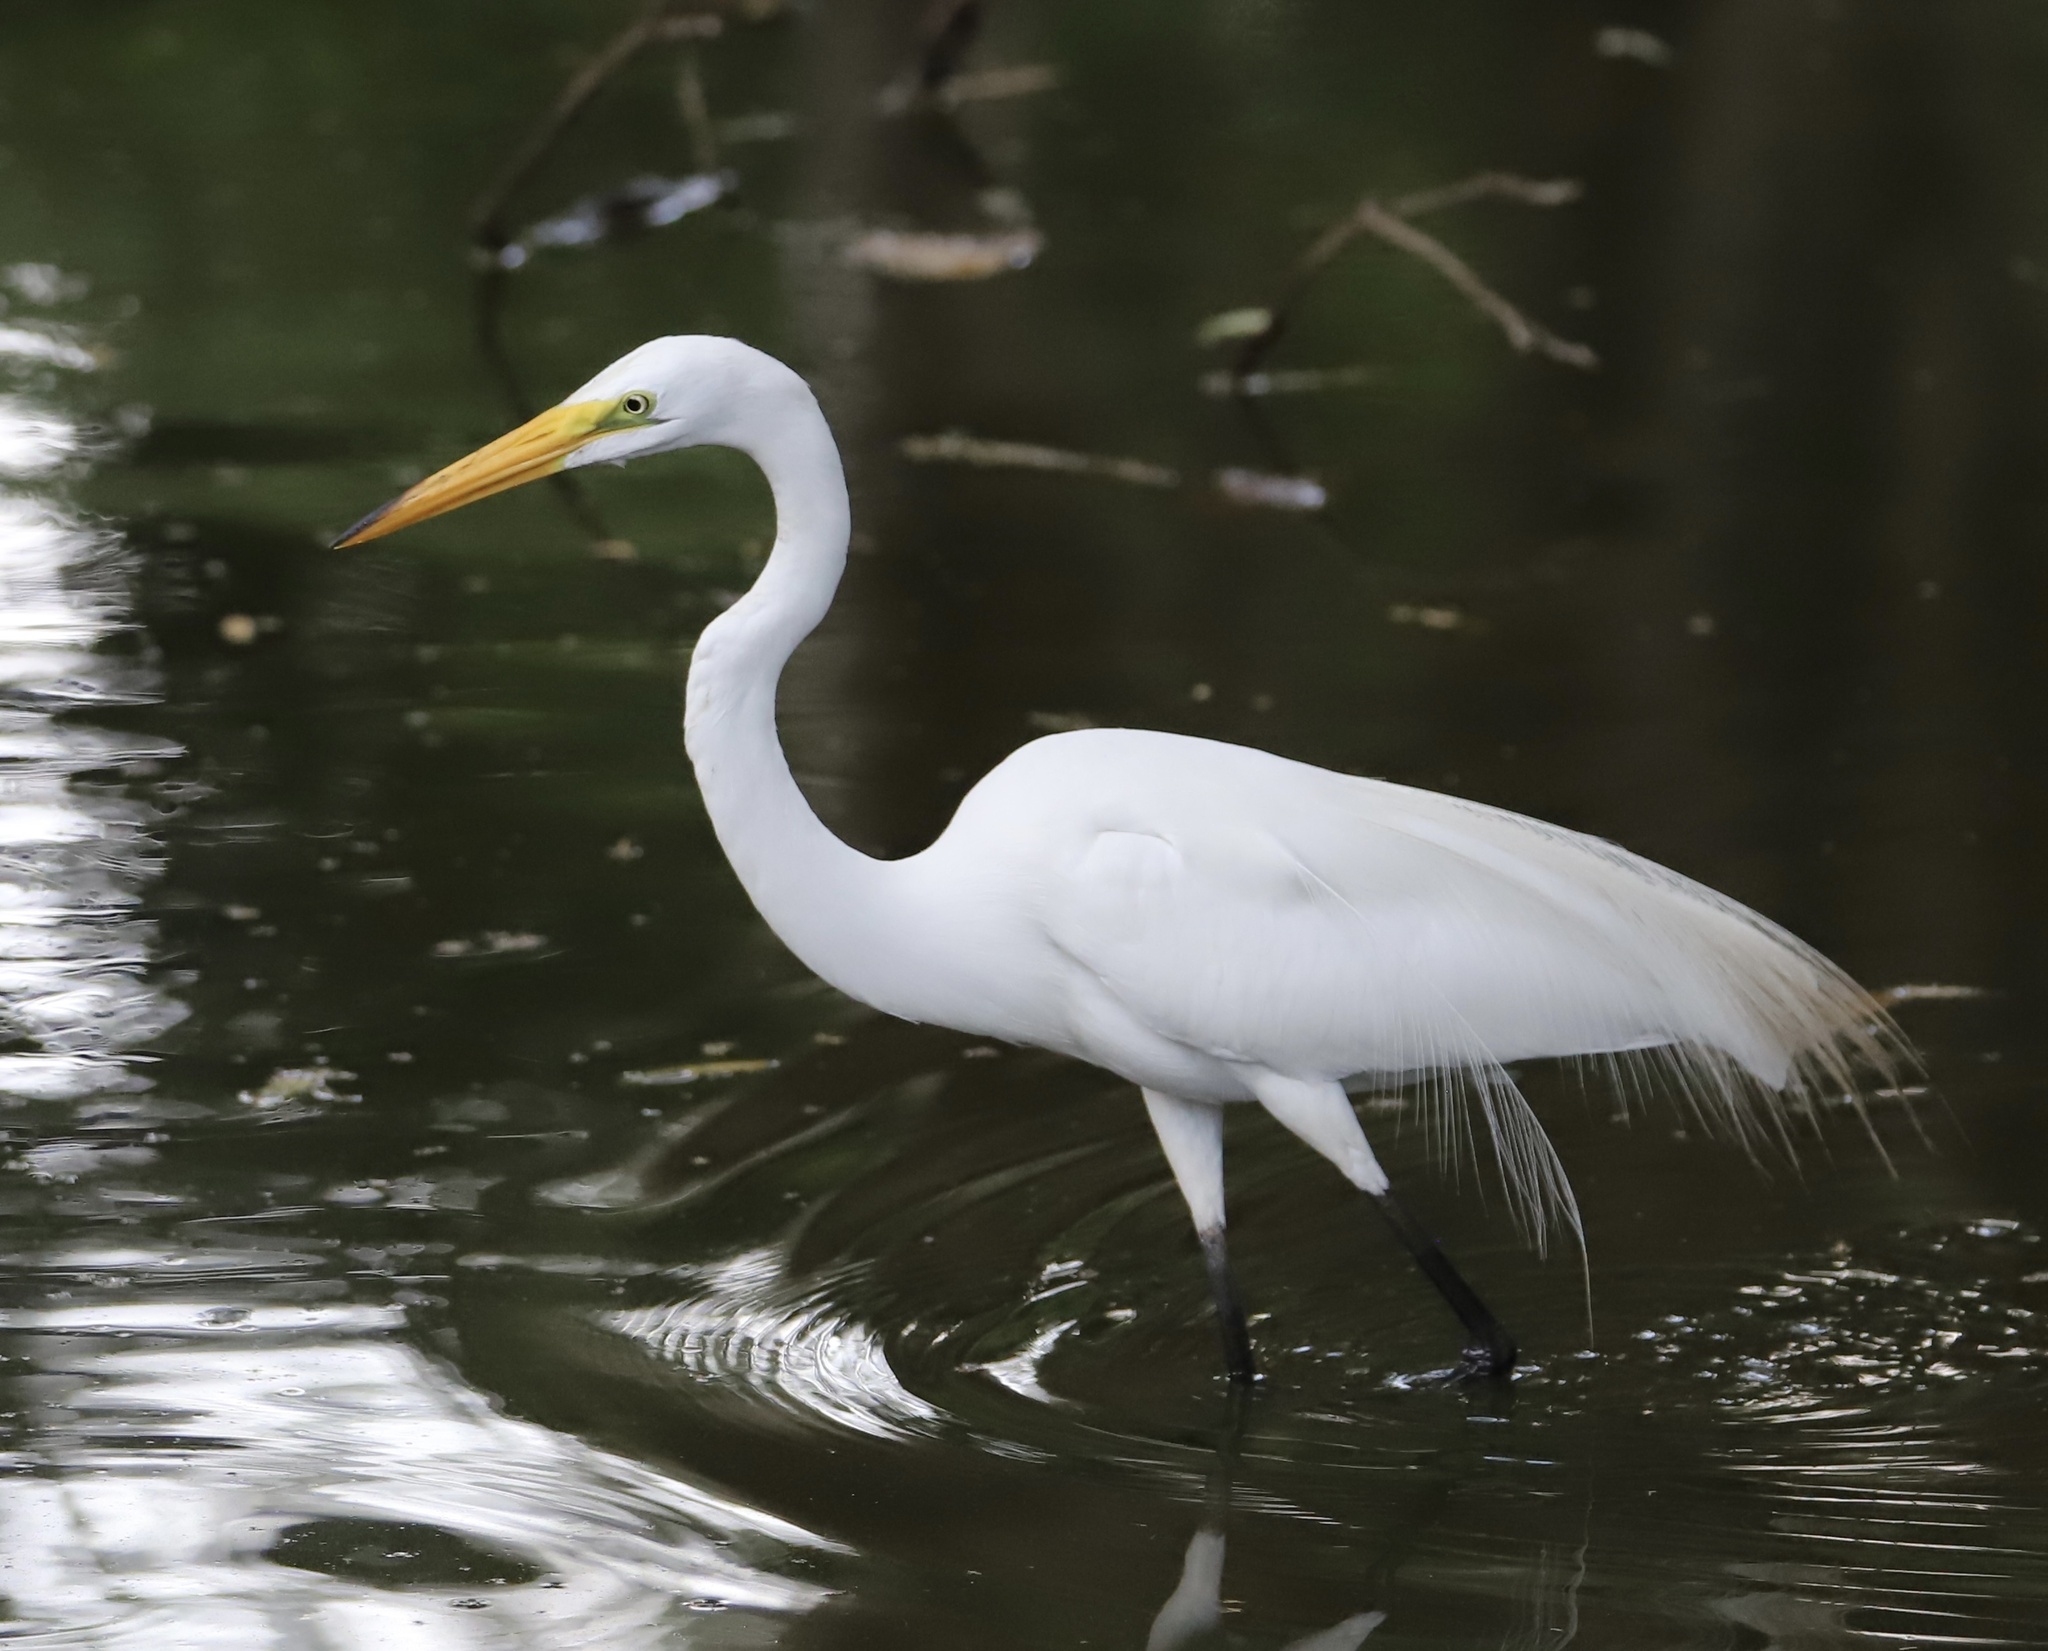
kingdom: Animalia
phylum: Chordata
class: Aves
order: Pelecaniformes
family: Ardeidae
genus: Ardea
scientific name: Ardea alba
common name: Great egret
